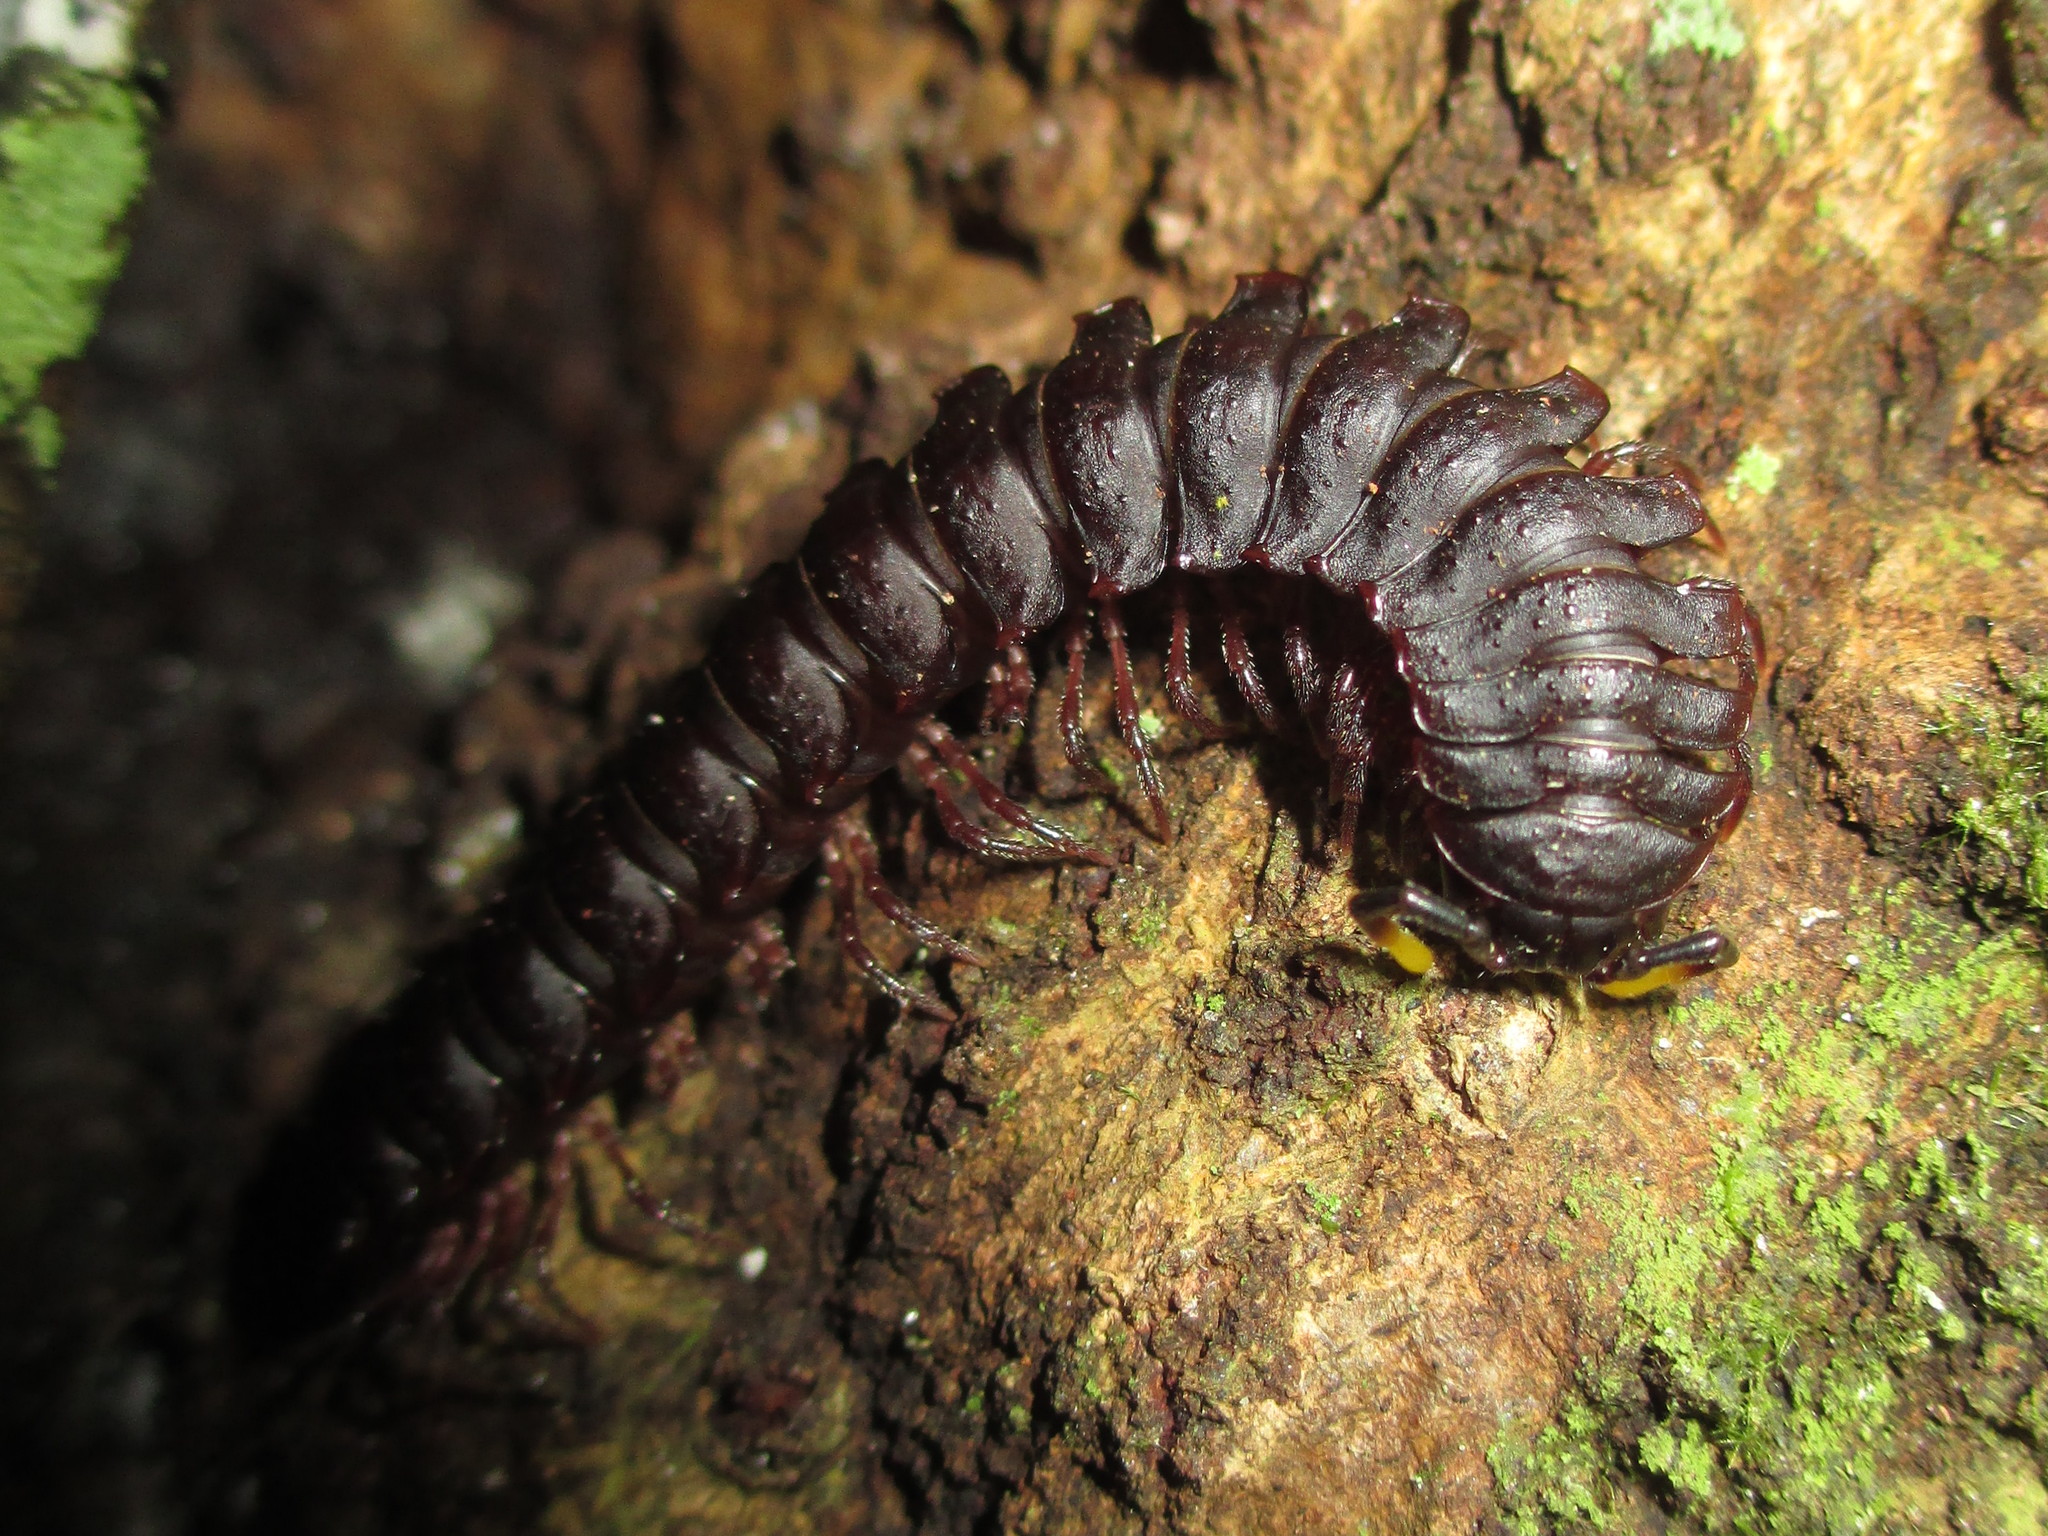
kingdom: Animalia
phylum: Arthropoda
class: Diplopoda
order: Polydesmida
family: Chelodesmidae
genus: Atlantodesmus
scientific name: Atlantodesmus eimeri
